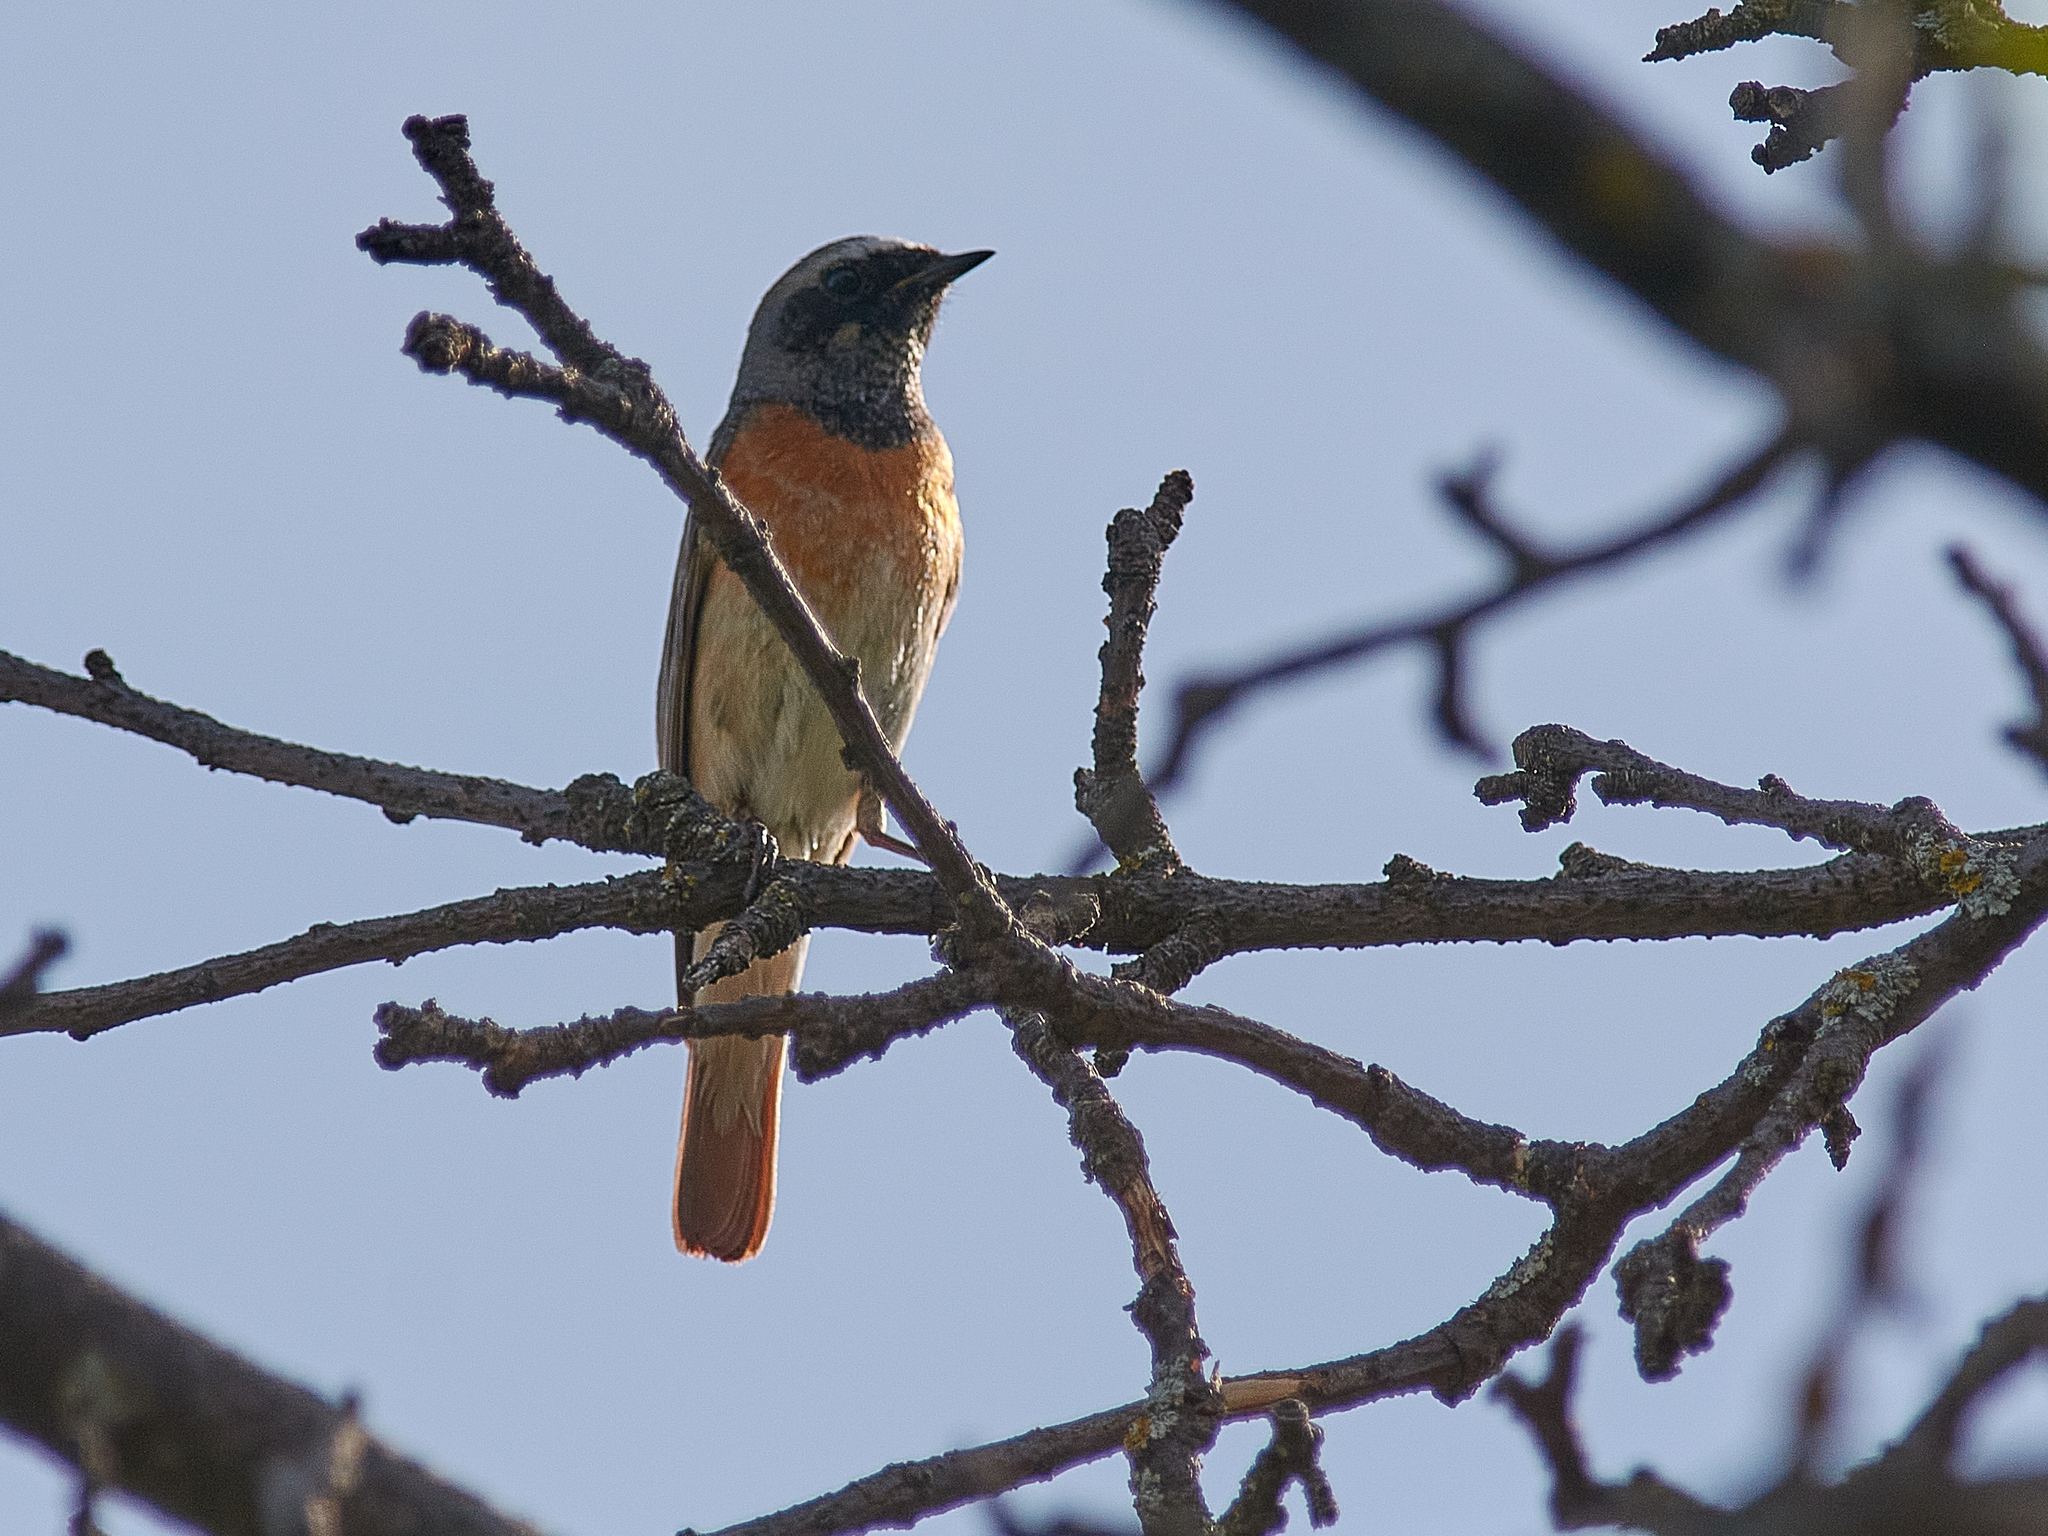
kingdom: Animalia
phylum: Chordata
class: Aves
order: Passeriformes
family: Muscicapidae
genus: Phoenicurus
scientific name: Phoenicurus phoenicurus
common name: Common redstart
